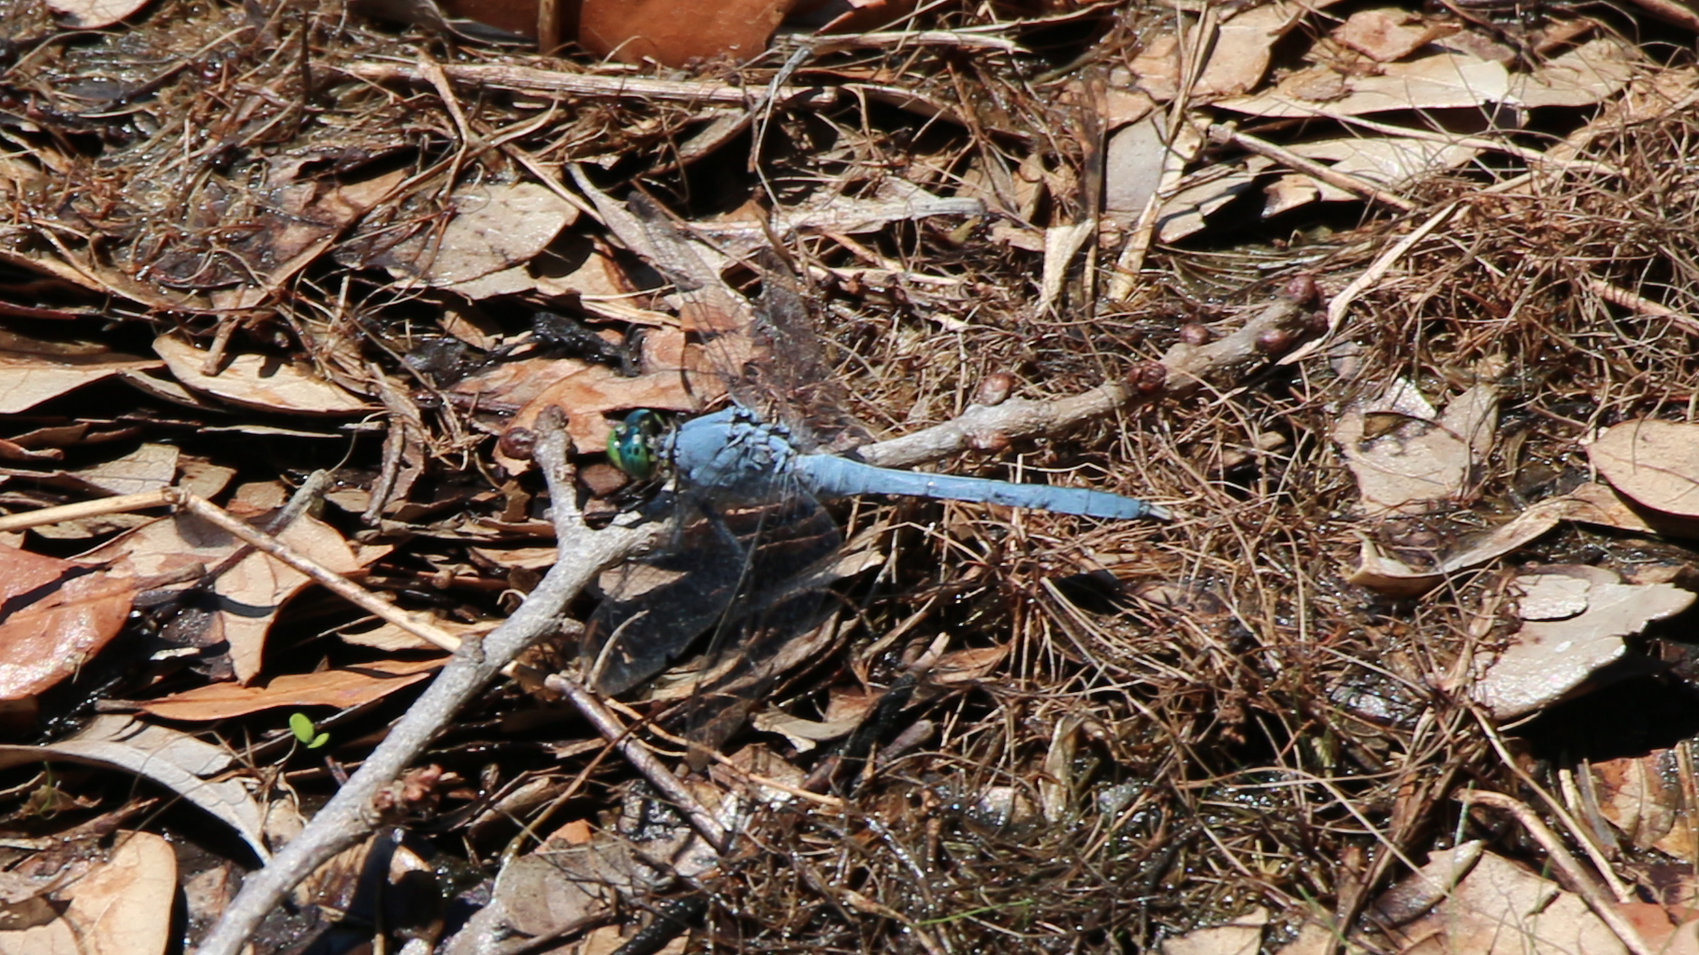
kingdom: Animalia
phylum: Arthropoda
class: Insecta
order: Odonata
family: Libellulidae
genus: Erythemis
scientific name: Erythemis simplicicollis
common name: Eastern pondhawk
